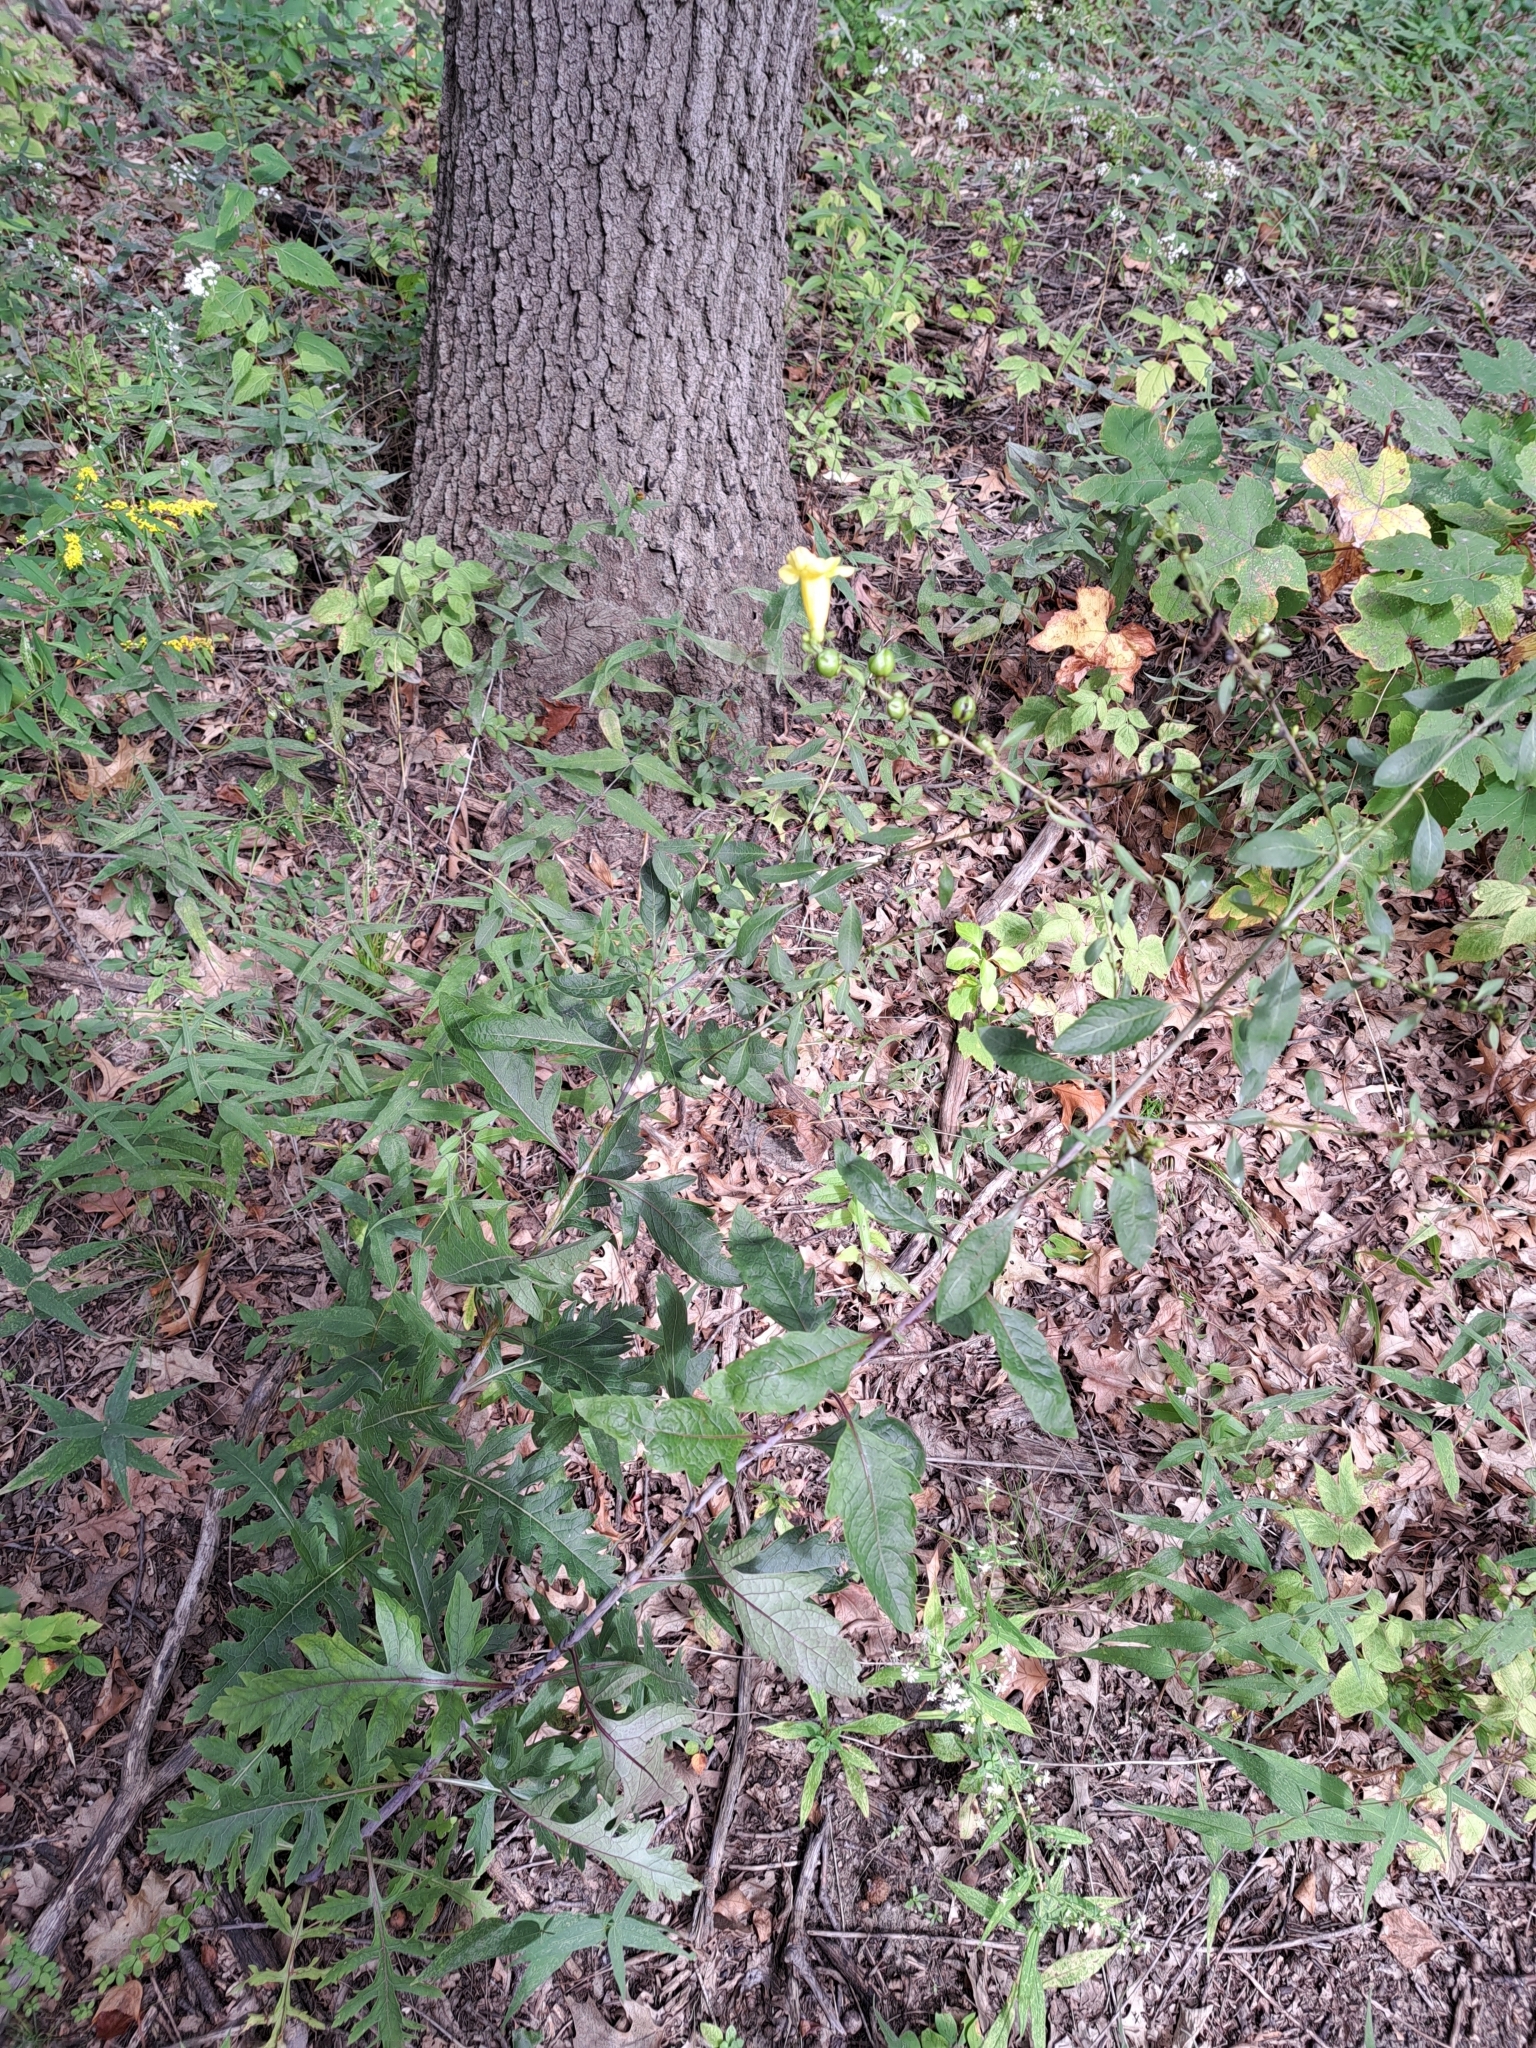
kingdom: Plantae
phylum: Tracheophyta
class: Magnoliopsida
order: Lamiales
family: Orobanchaceae
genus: Aureolaria
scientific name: Aureolaria flava
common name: Smooth false foxglove
